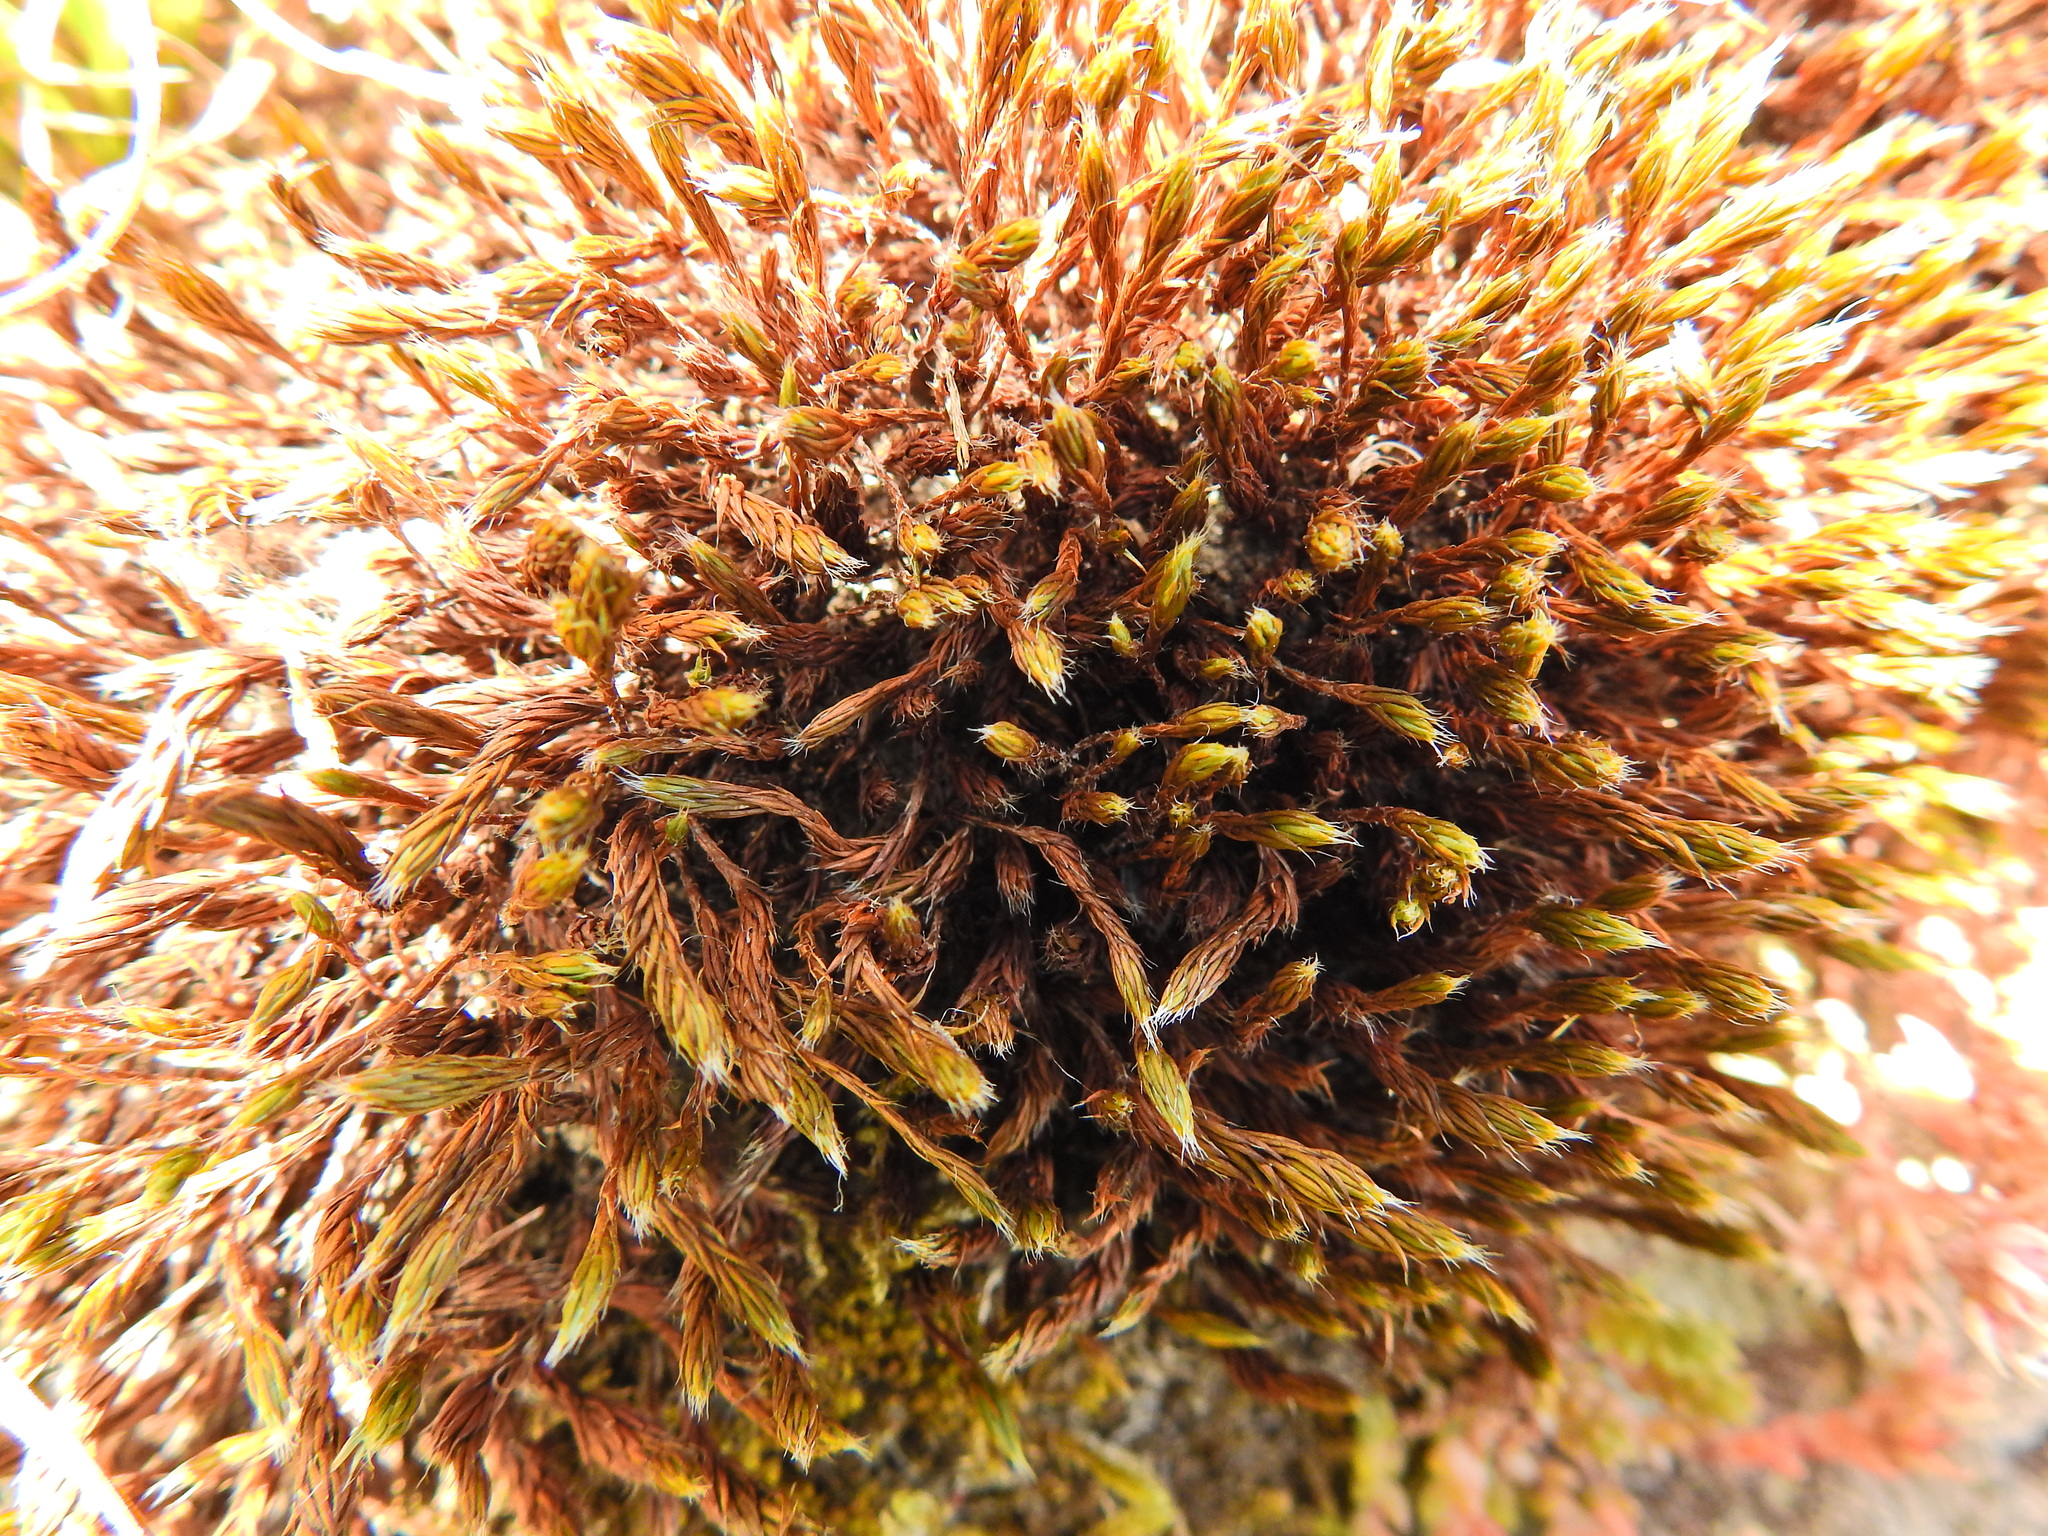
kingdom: Plantae
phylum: Bryophyta
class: Polytrichopsida
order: Polytrichales
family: Polytrichaceae
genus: Polytrichum
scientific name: Polytrichum piliferum
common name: Bristly haircap
